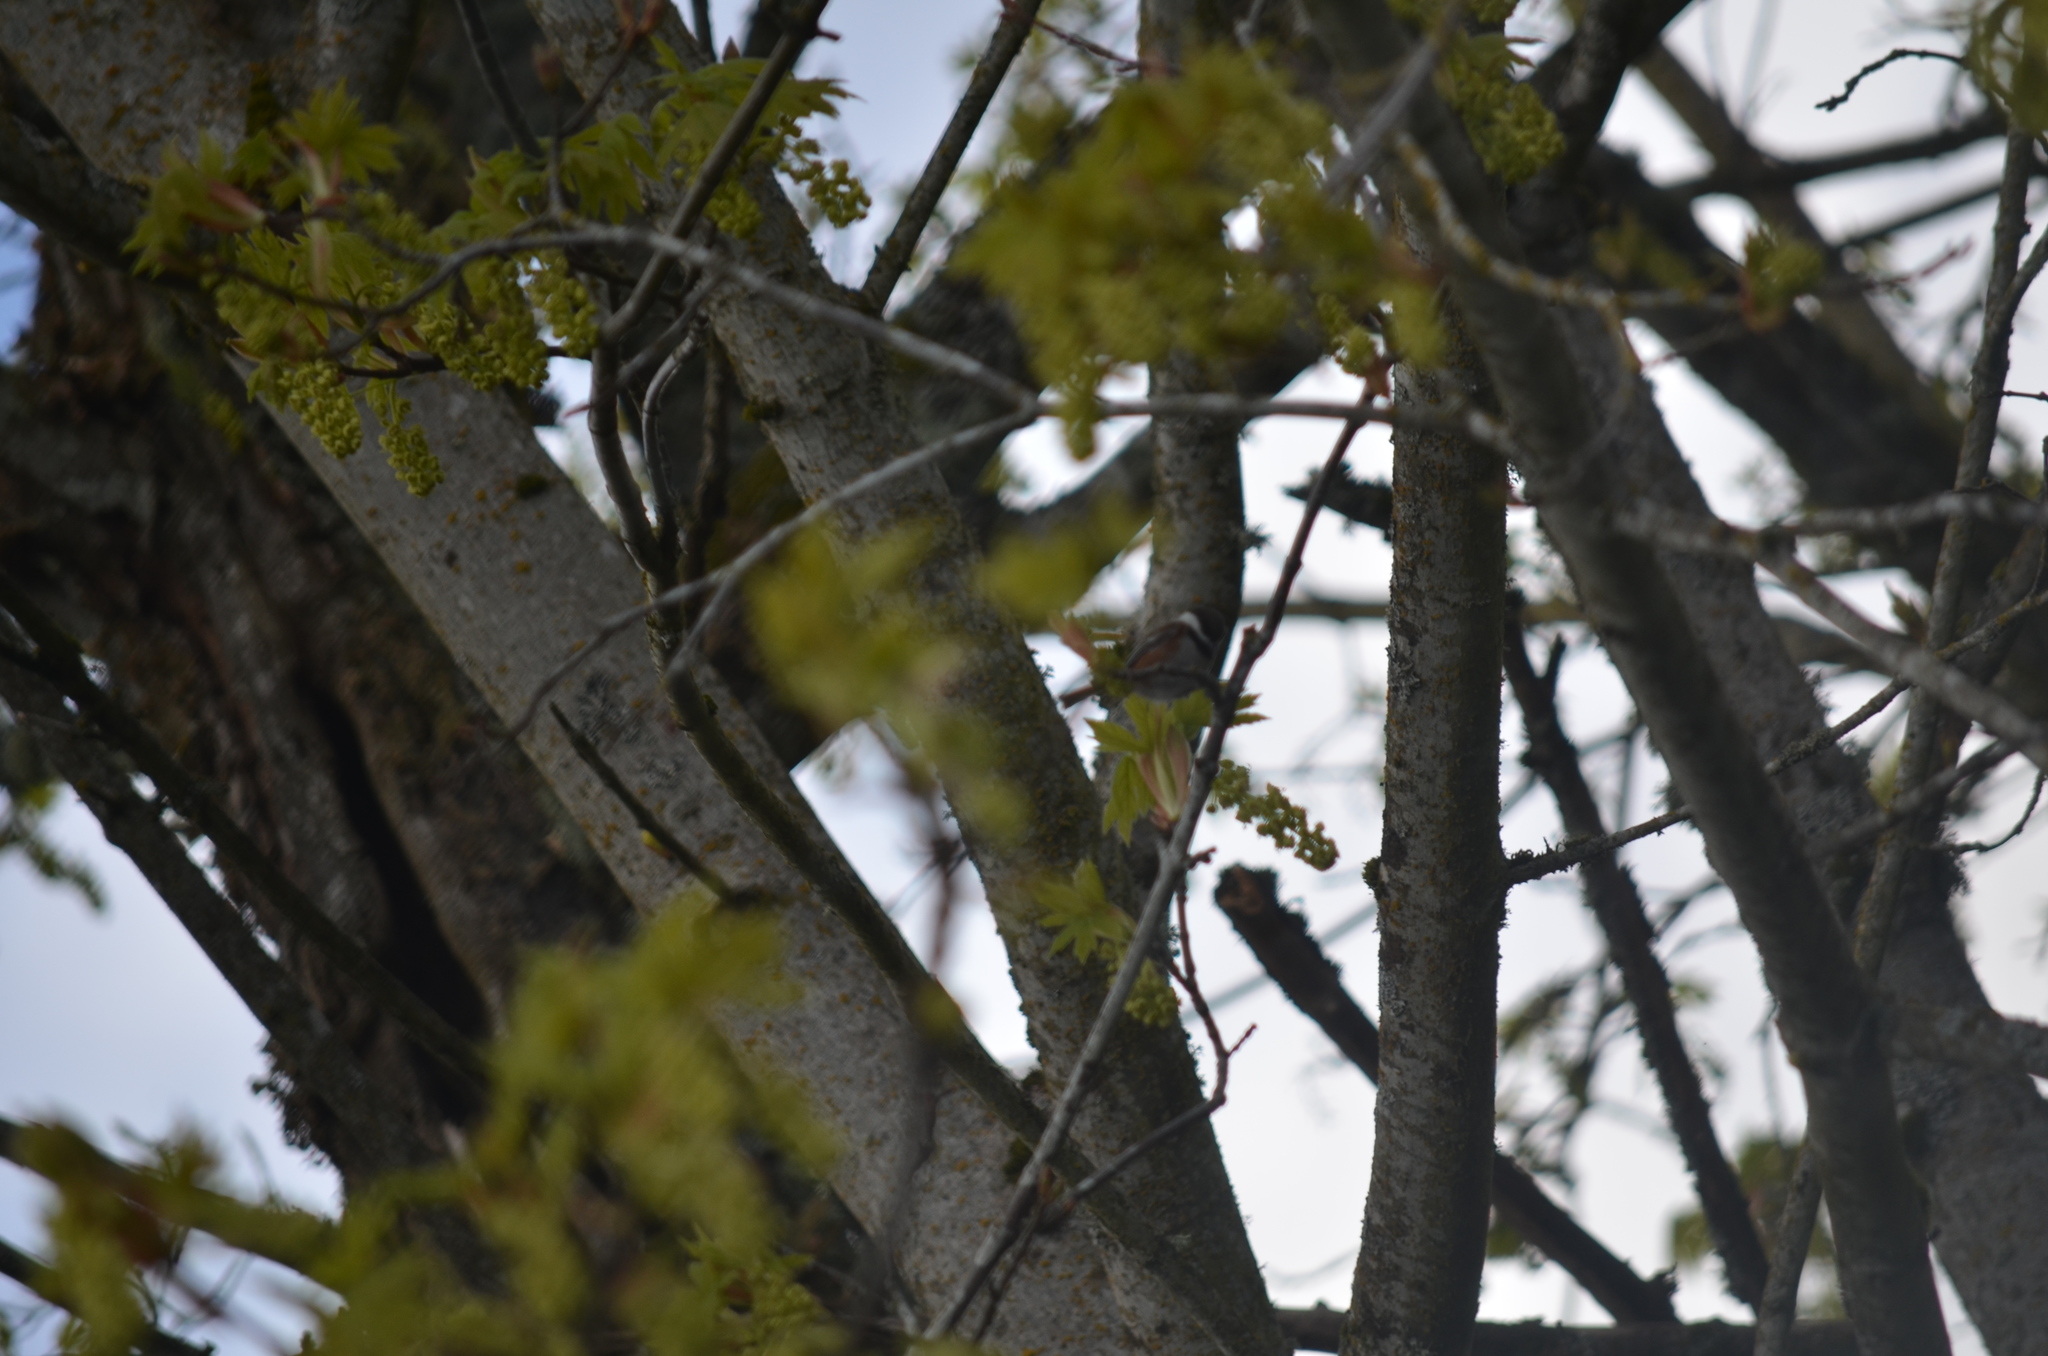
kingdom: Animalia
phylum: Chordata
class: Aves
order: Passeriformes
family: Paridae
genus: Poecile
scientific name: Poecile rufescens
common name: Chestnut-backed chickadee
